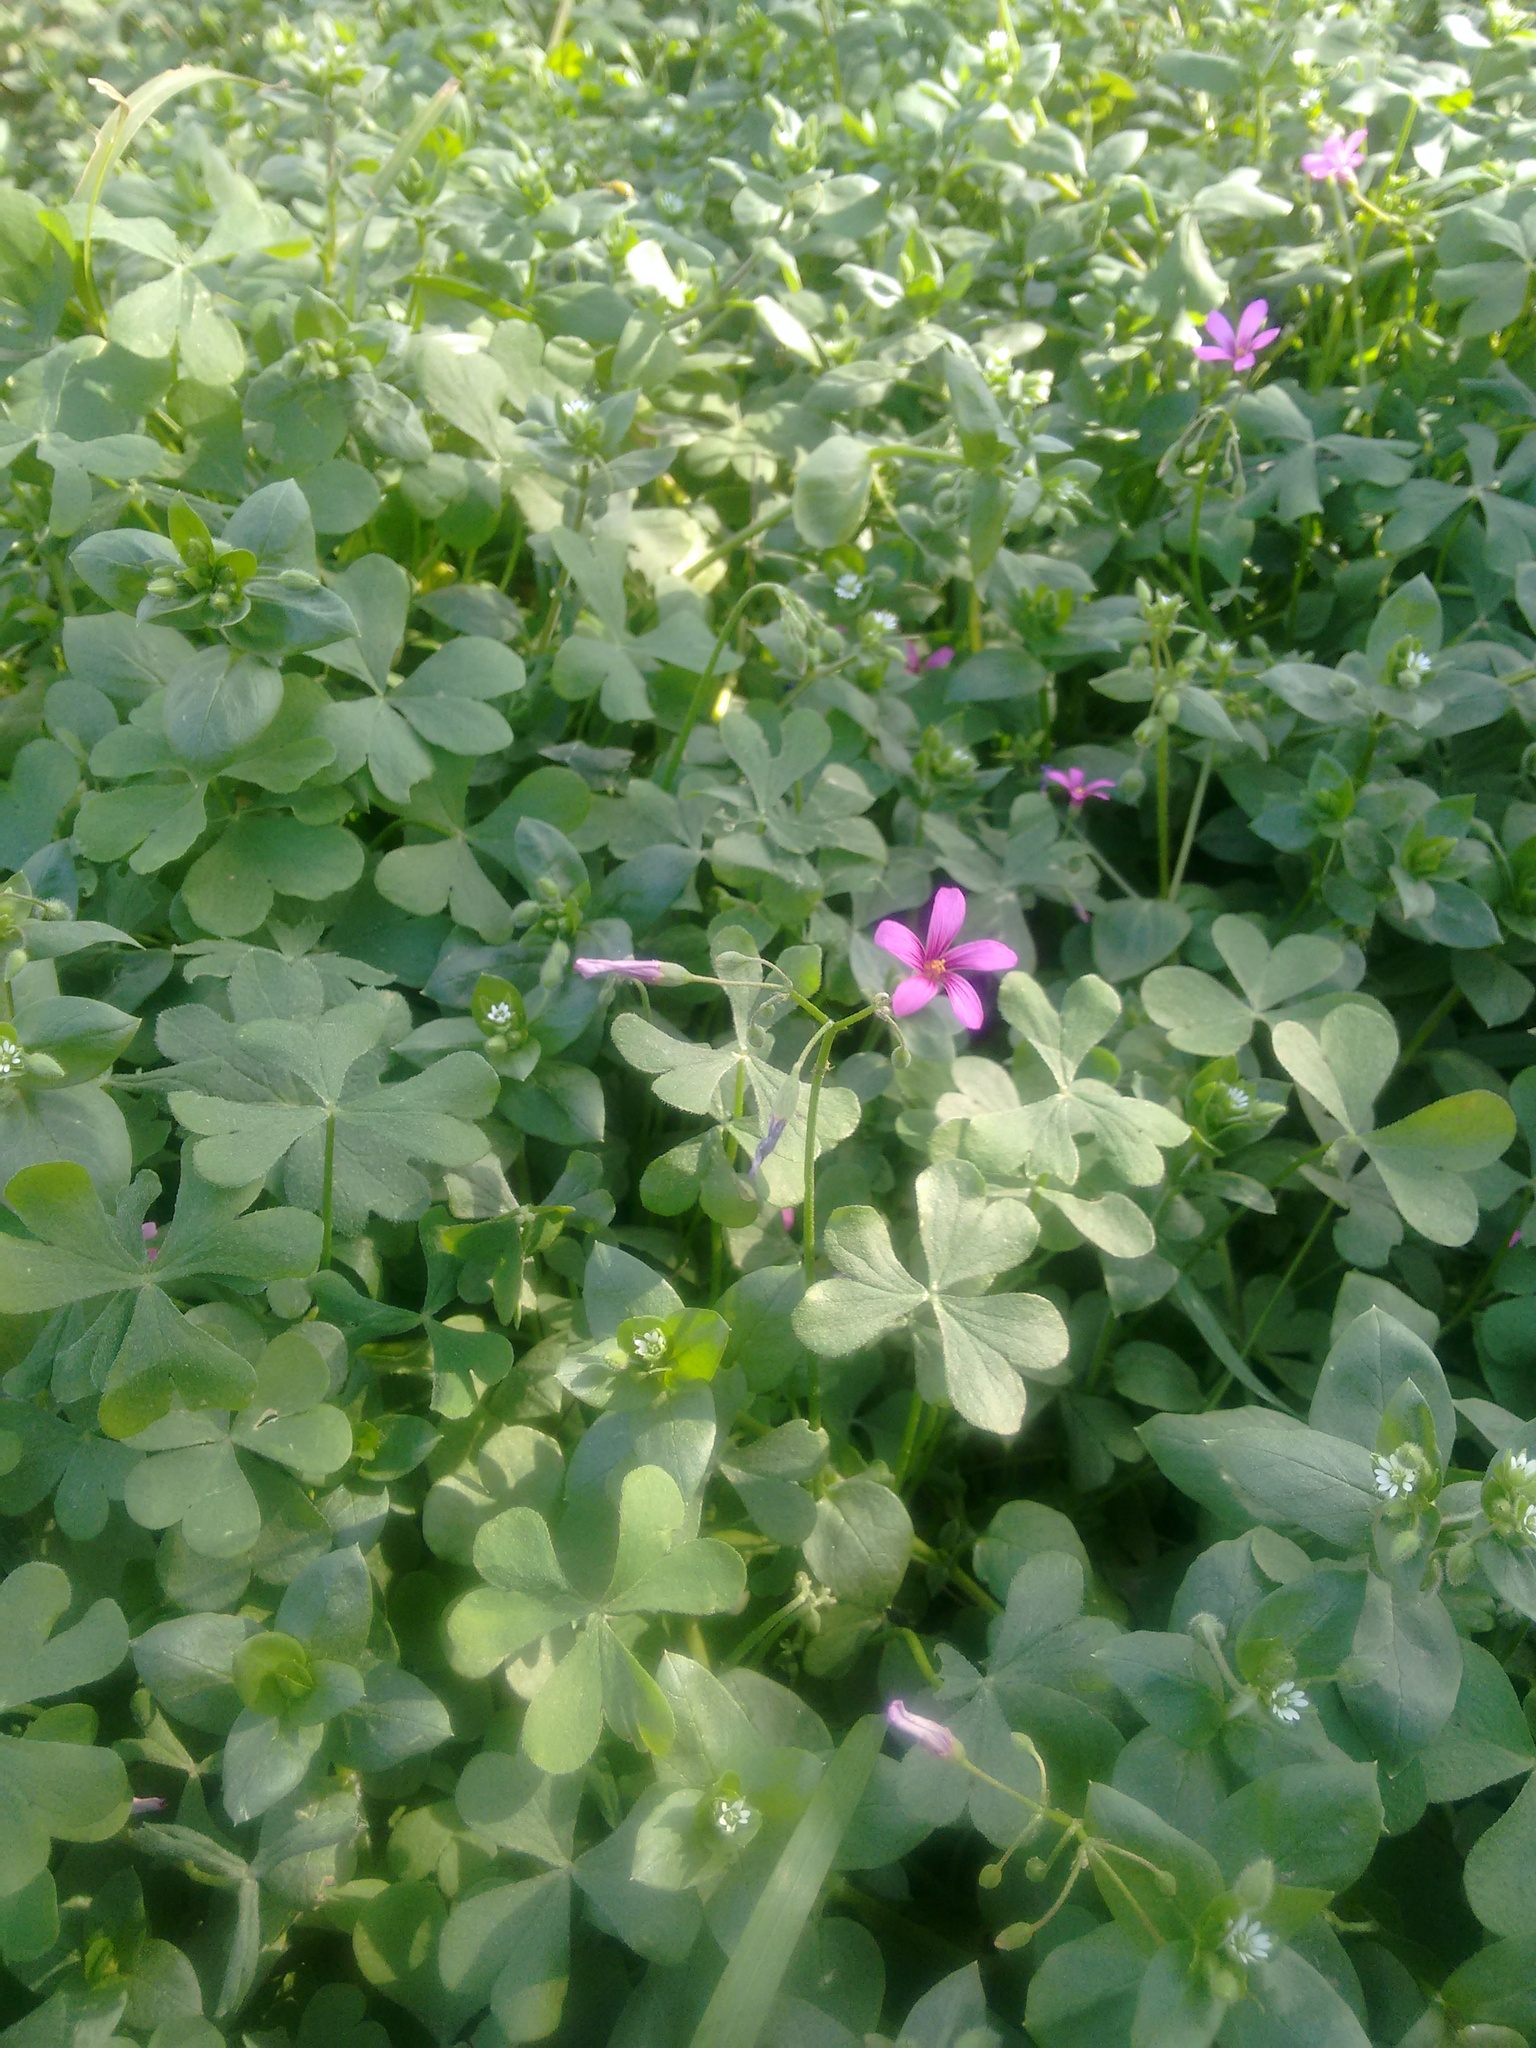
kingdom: Plantae
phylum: Tracheophyta
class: Magnoliopsida
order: Oxalidales
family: Oxalidaceae
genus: Oxalis
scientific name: Oxalis articulata
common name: Pink-sorrel
